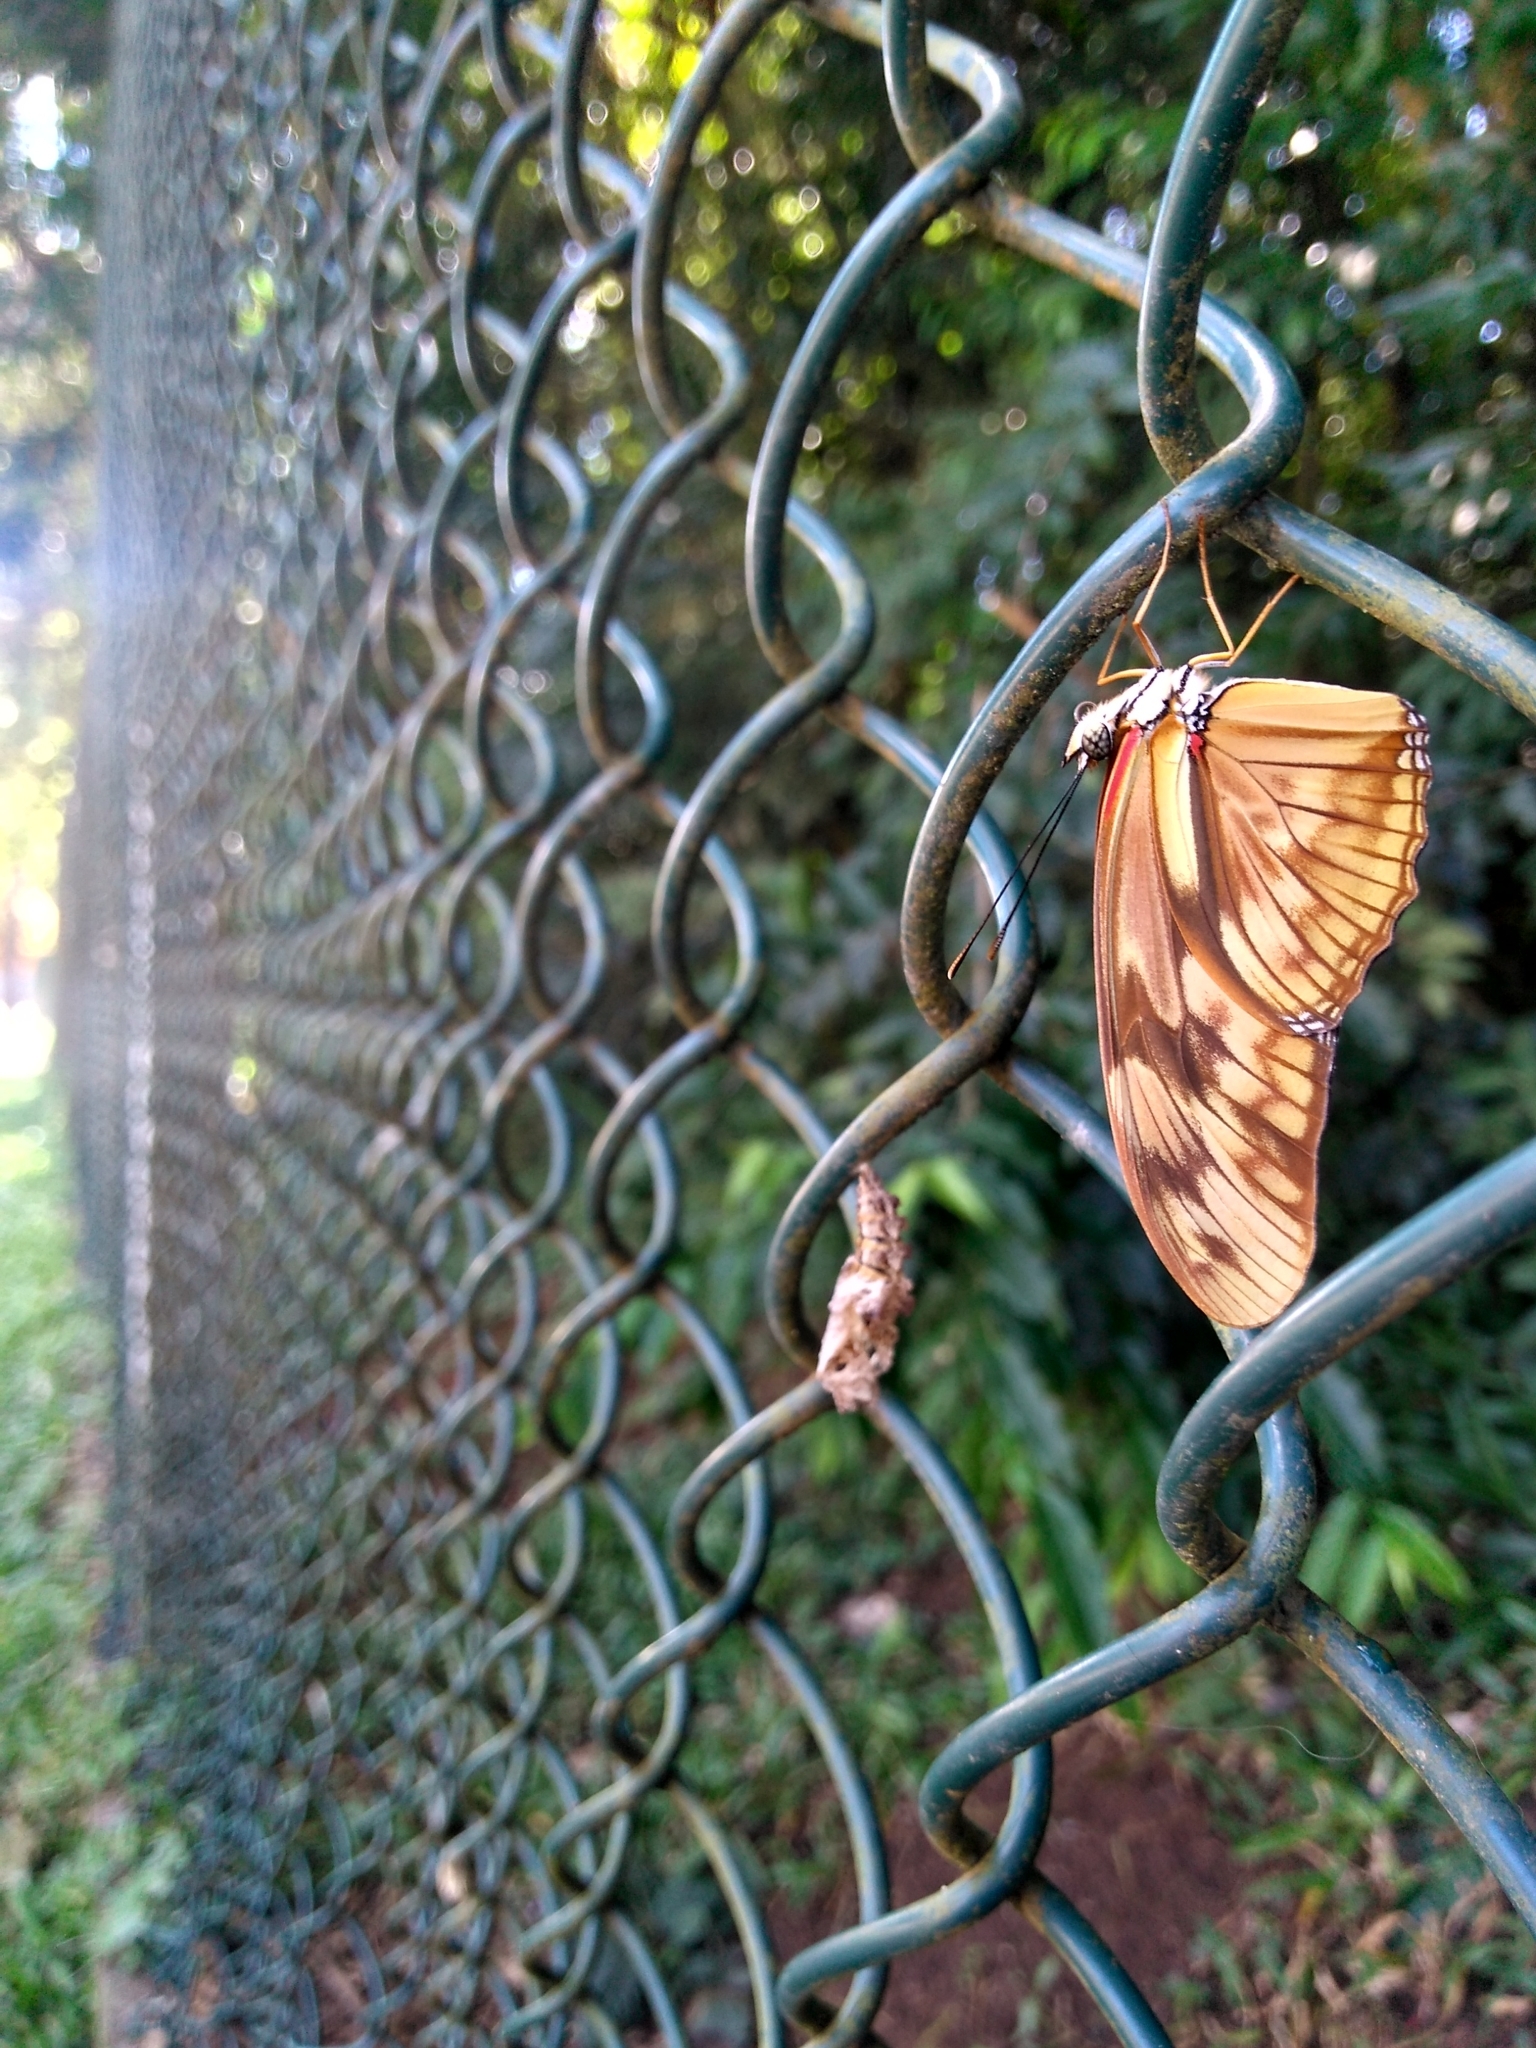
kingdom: Animalia
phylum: Arthropoda
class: Insecta
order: Lepidoptera
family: Nymphalidae
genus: Dryas
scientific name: Dryas iulia
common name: Flambeau
